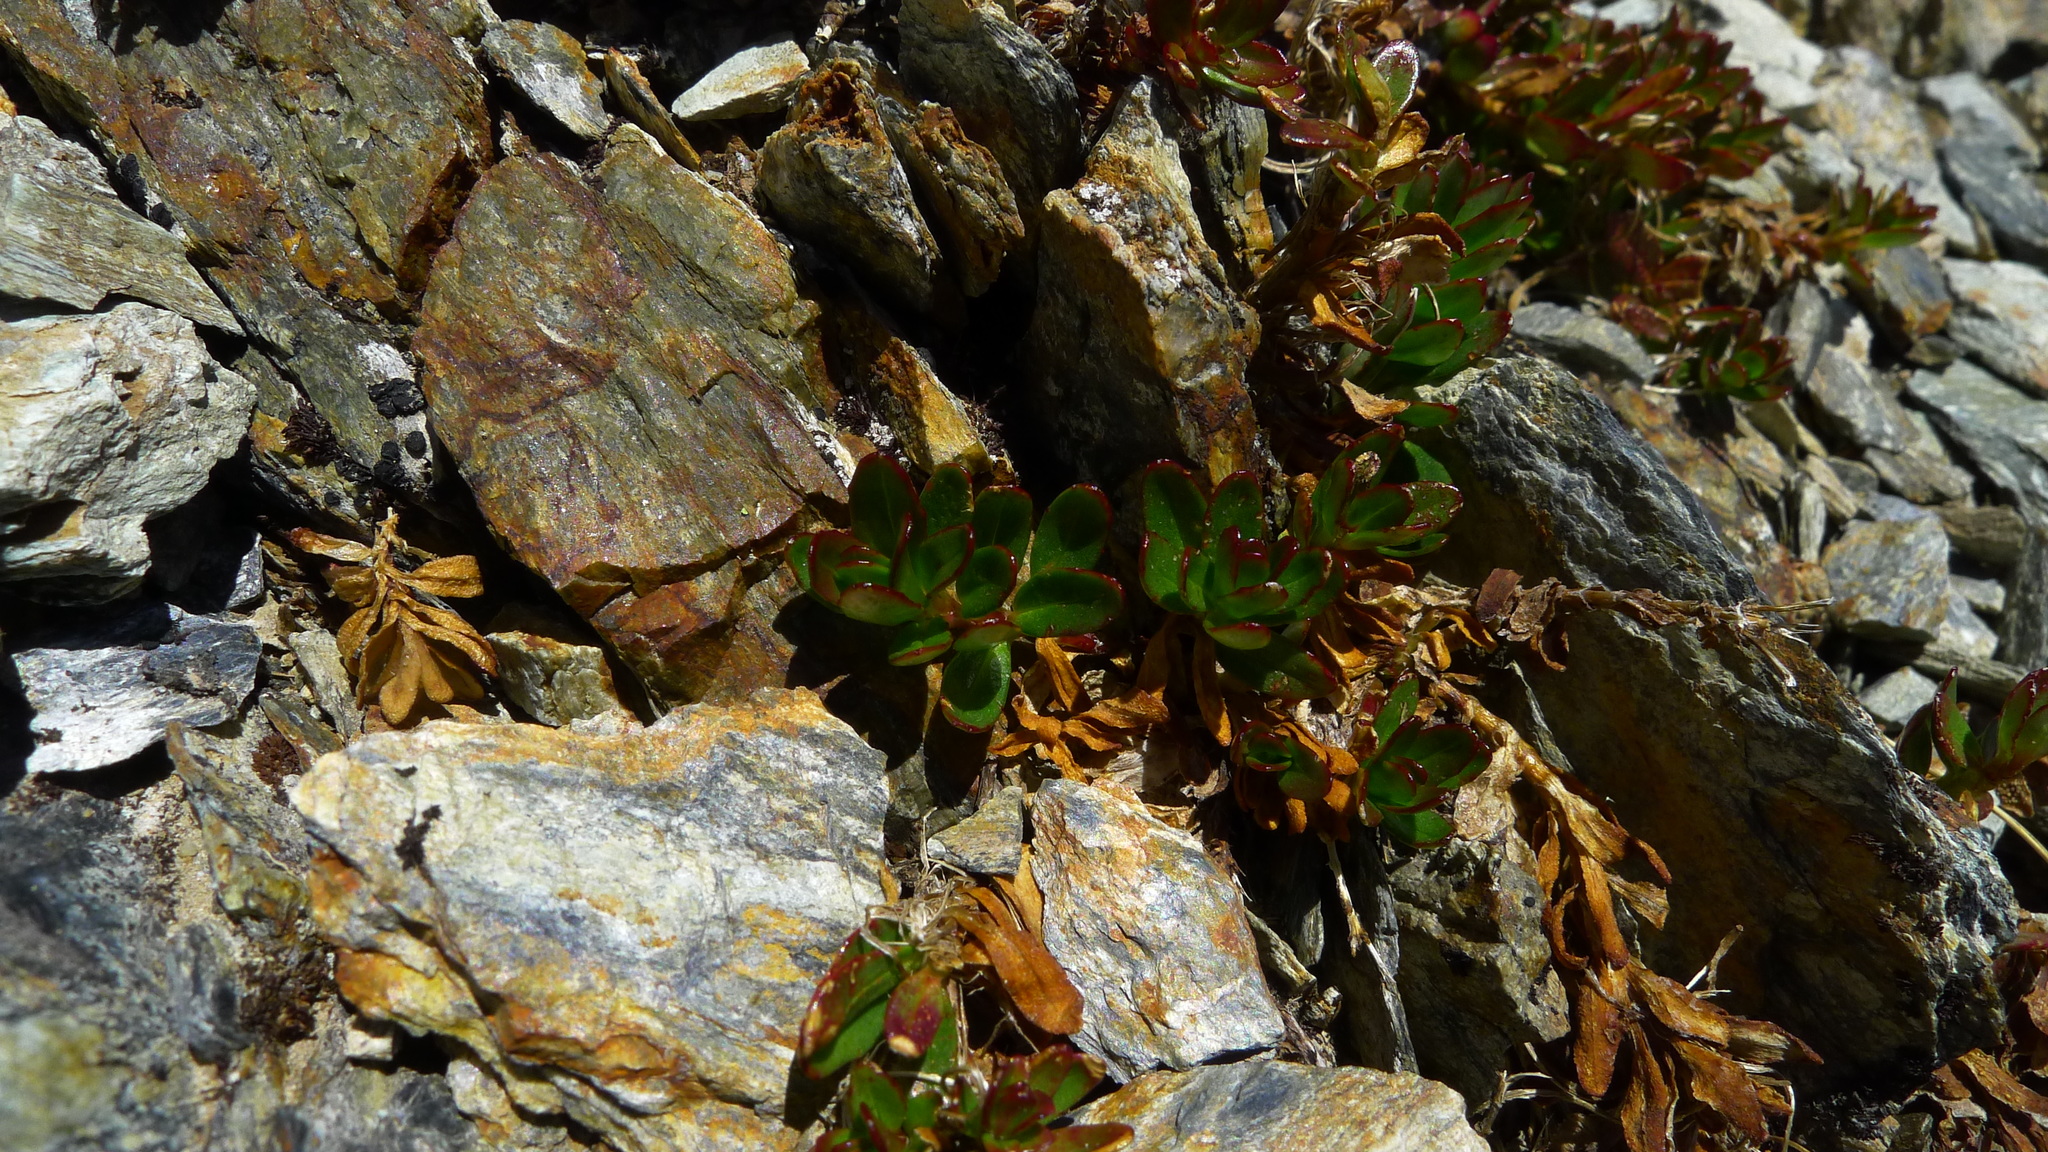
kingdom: Plantae
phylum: Tracheophyta
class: Magnoliopsida
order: Myrtales
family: Onagraceae
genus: Epilobium
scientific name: Epilobium glabellum
